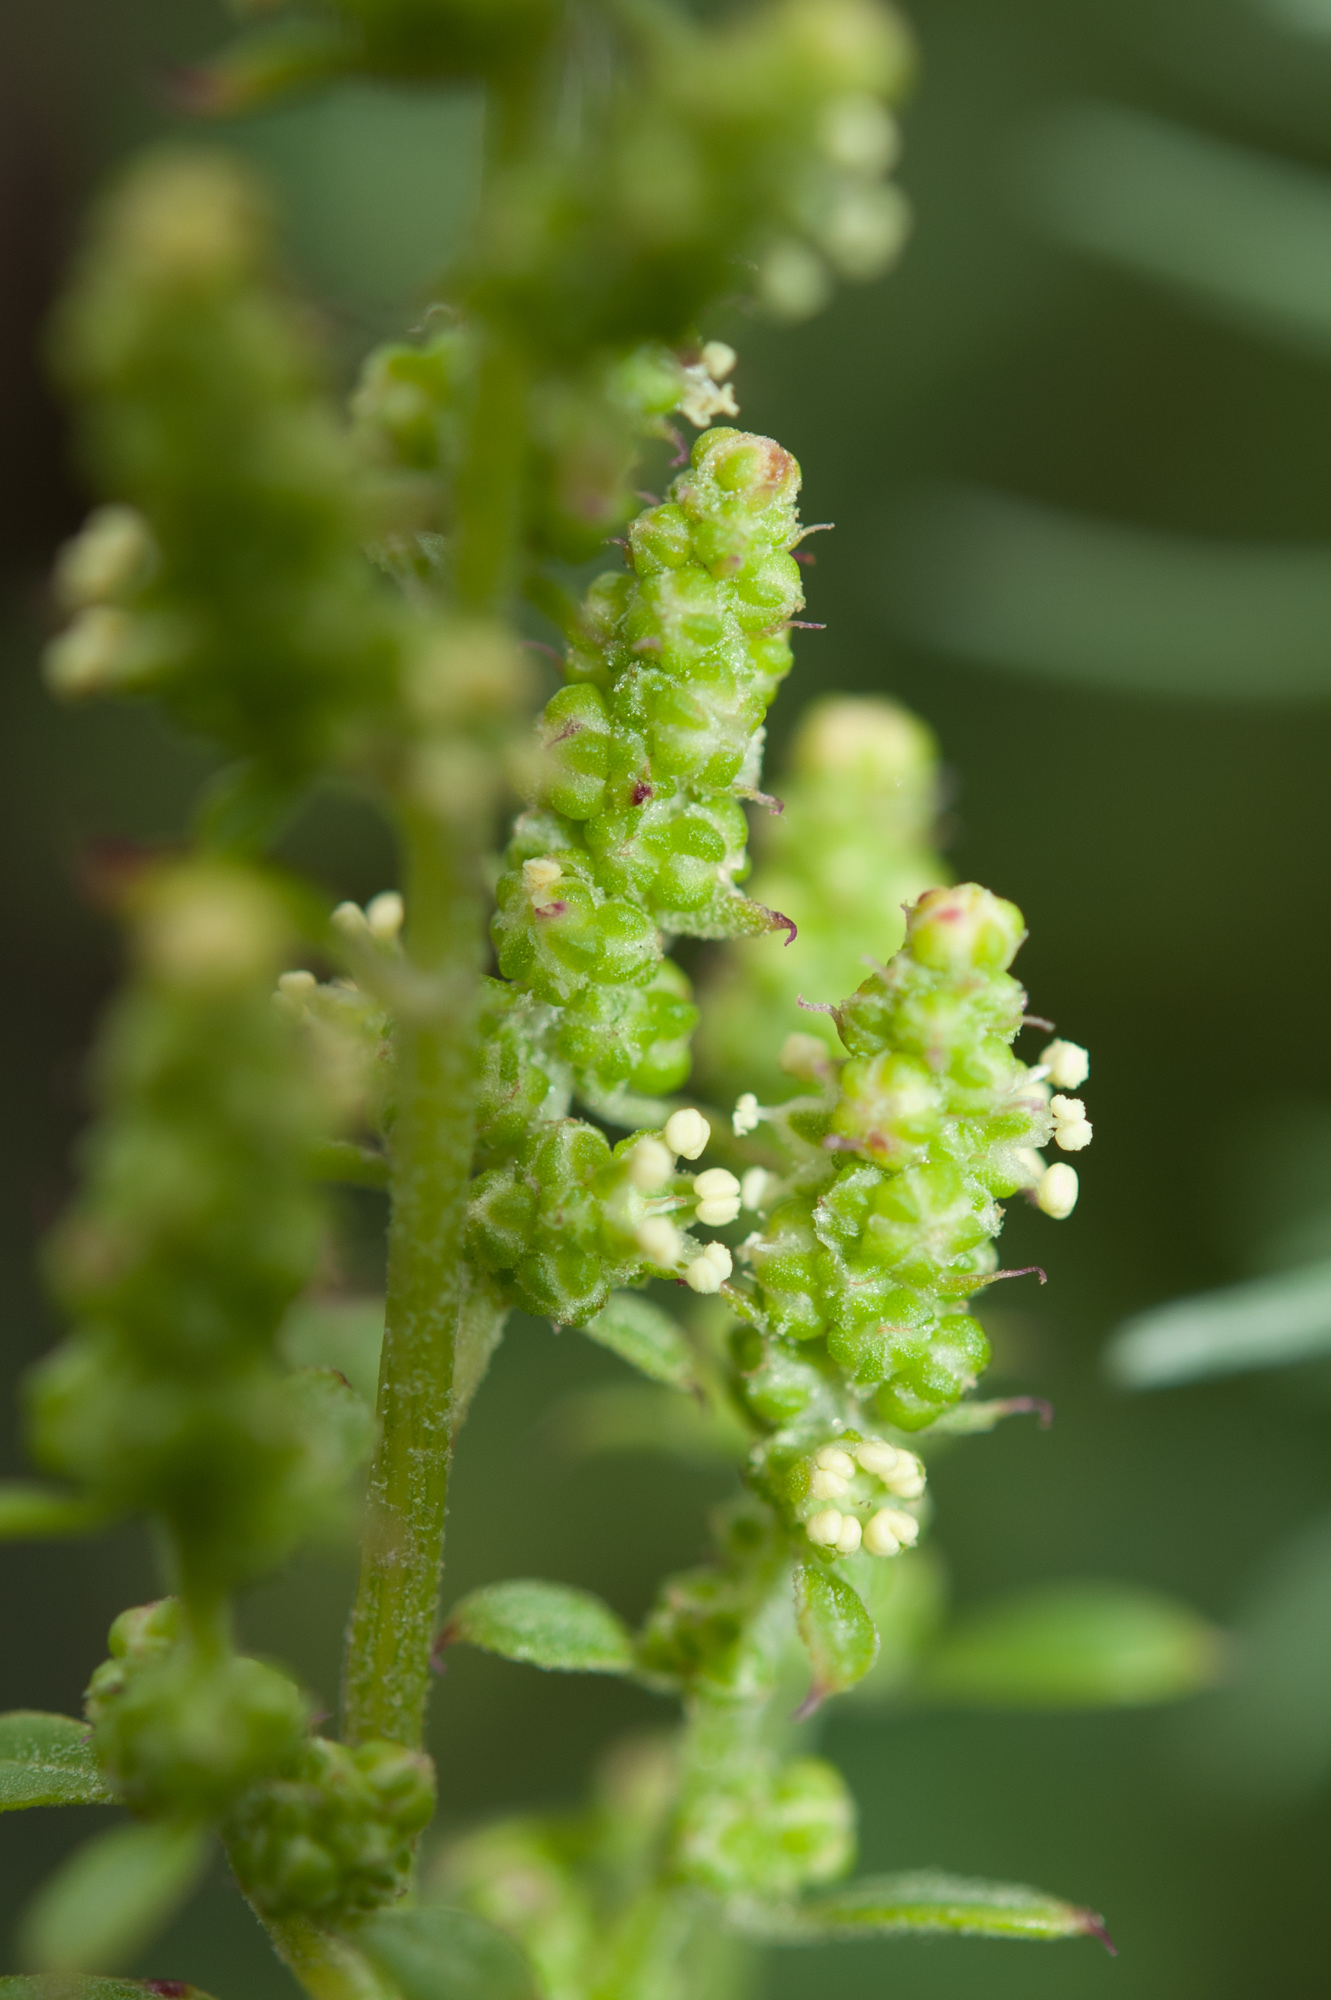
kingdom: Plantae
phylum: Tracheophyta
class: Magnoliopsida
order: Caryophyllales
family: Amaranthaceae
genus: Chenopodium
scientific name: Chenopodium acuminatum
